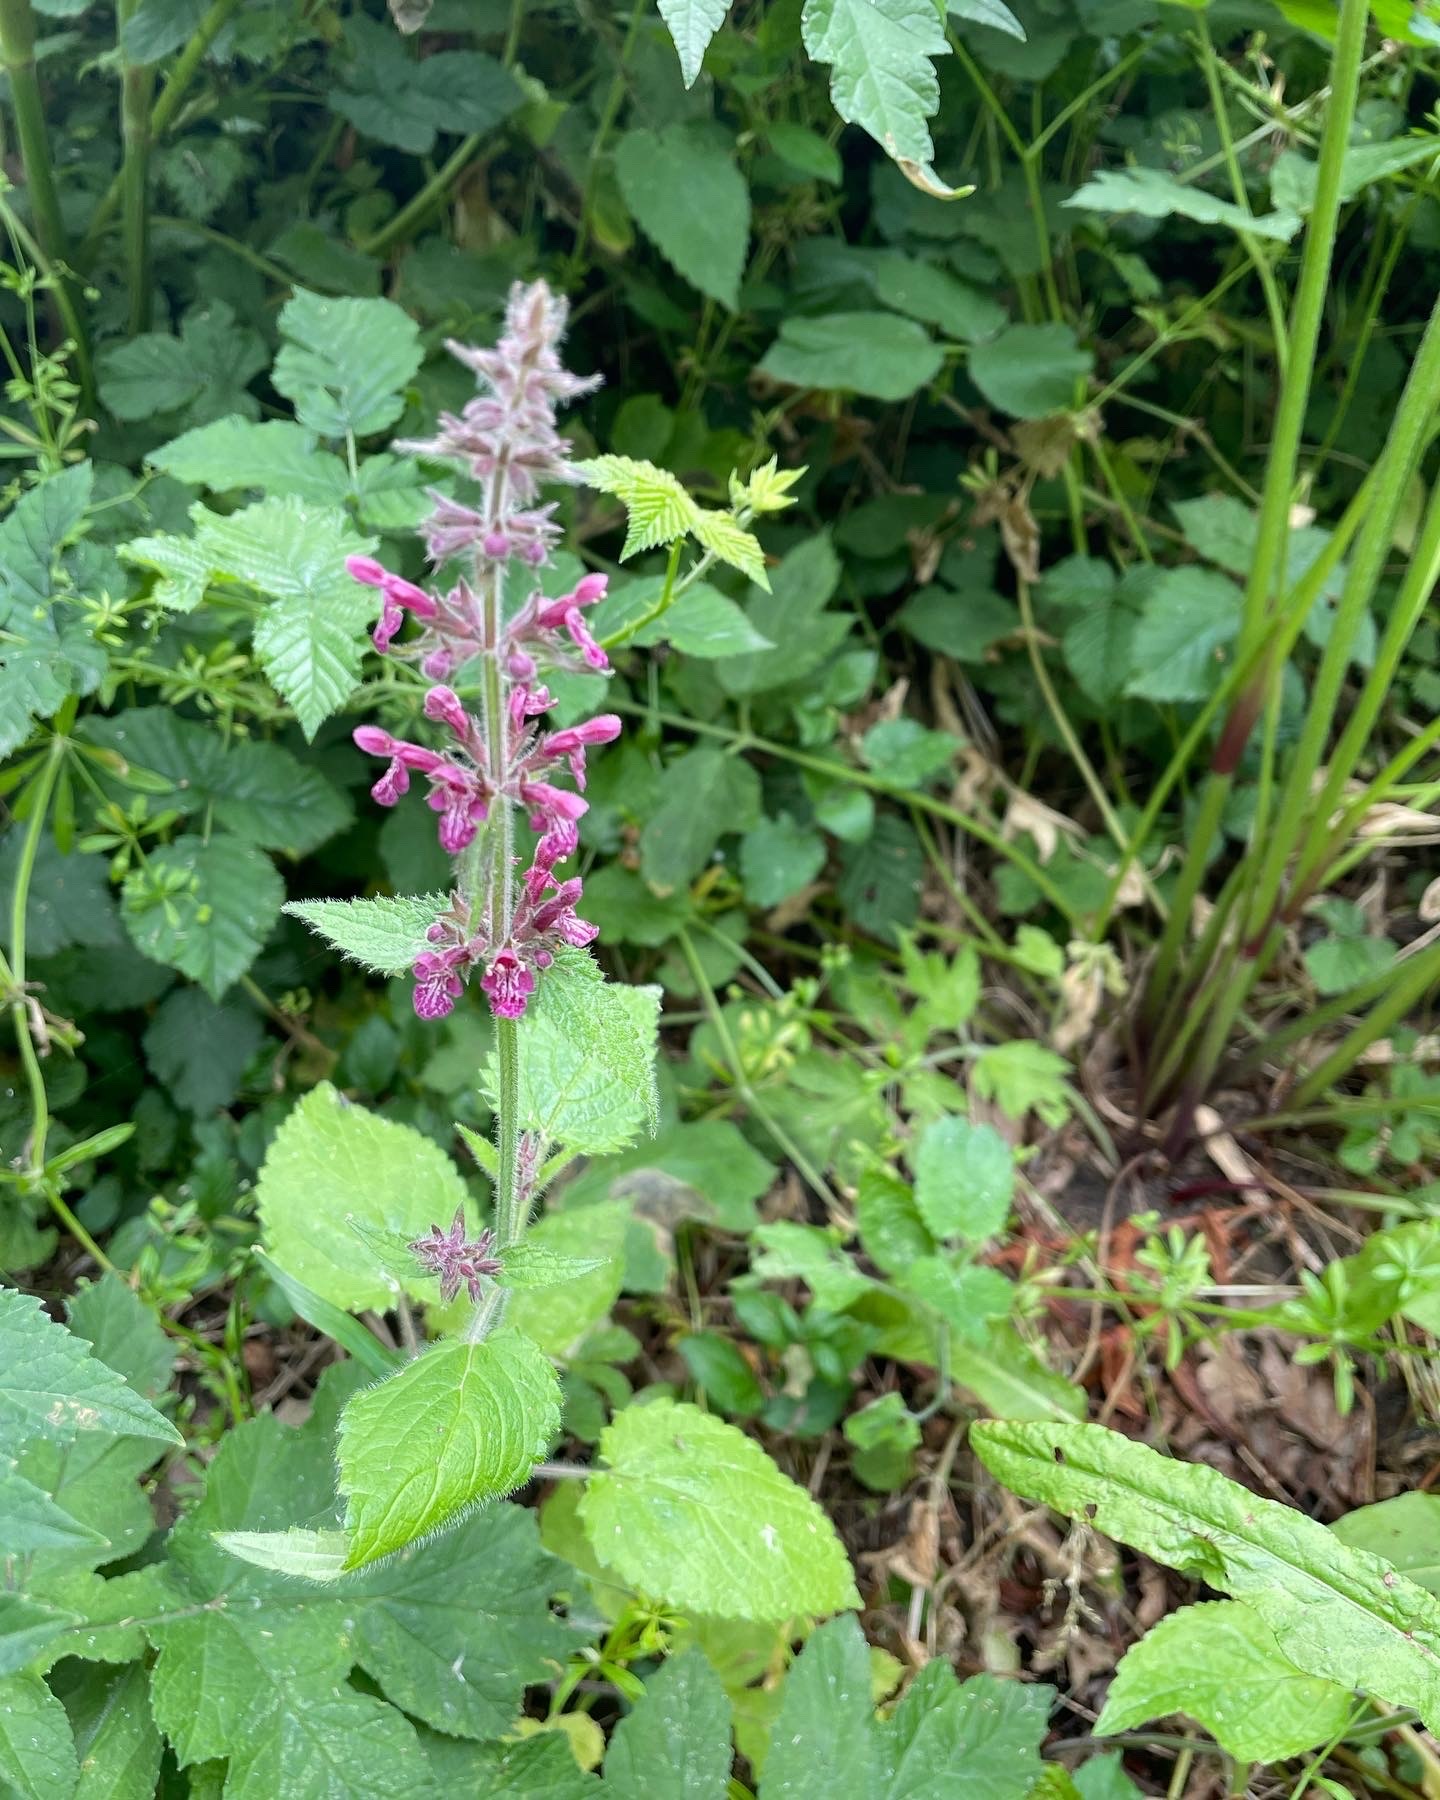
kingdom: Plantae
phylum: Tracheophyta
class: Magnoliopsida
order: Lamiales
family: Lamiaceae
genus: Stachys
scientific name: Stachys sylvatica
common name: Hedge woundwort
